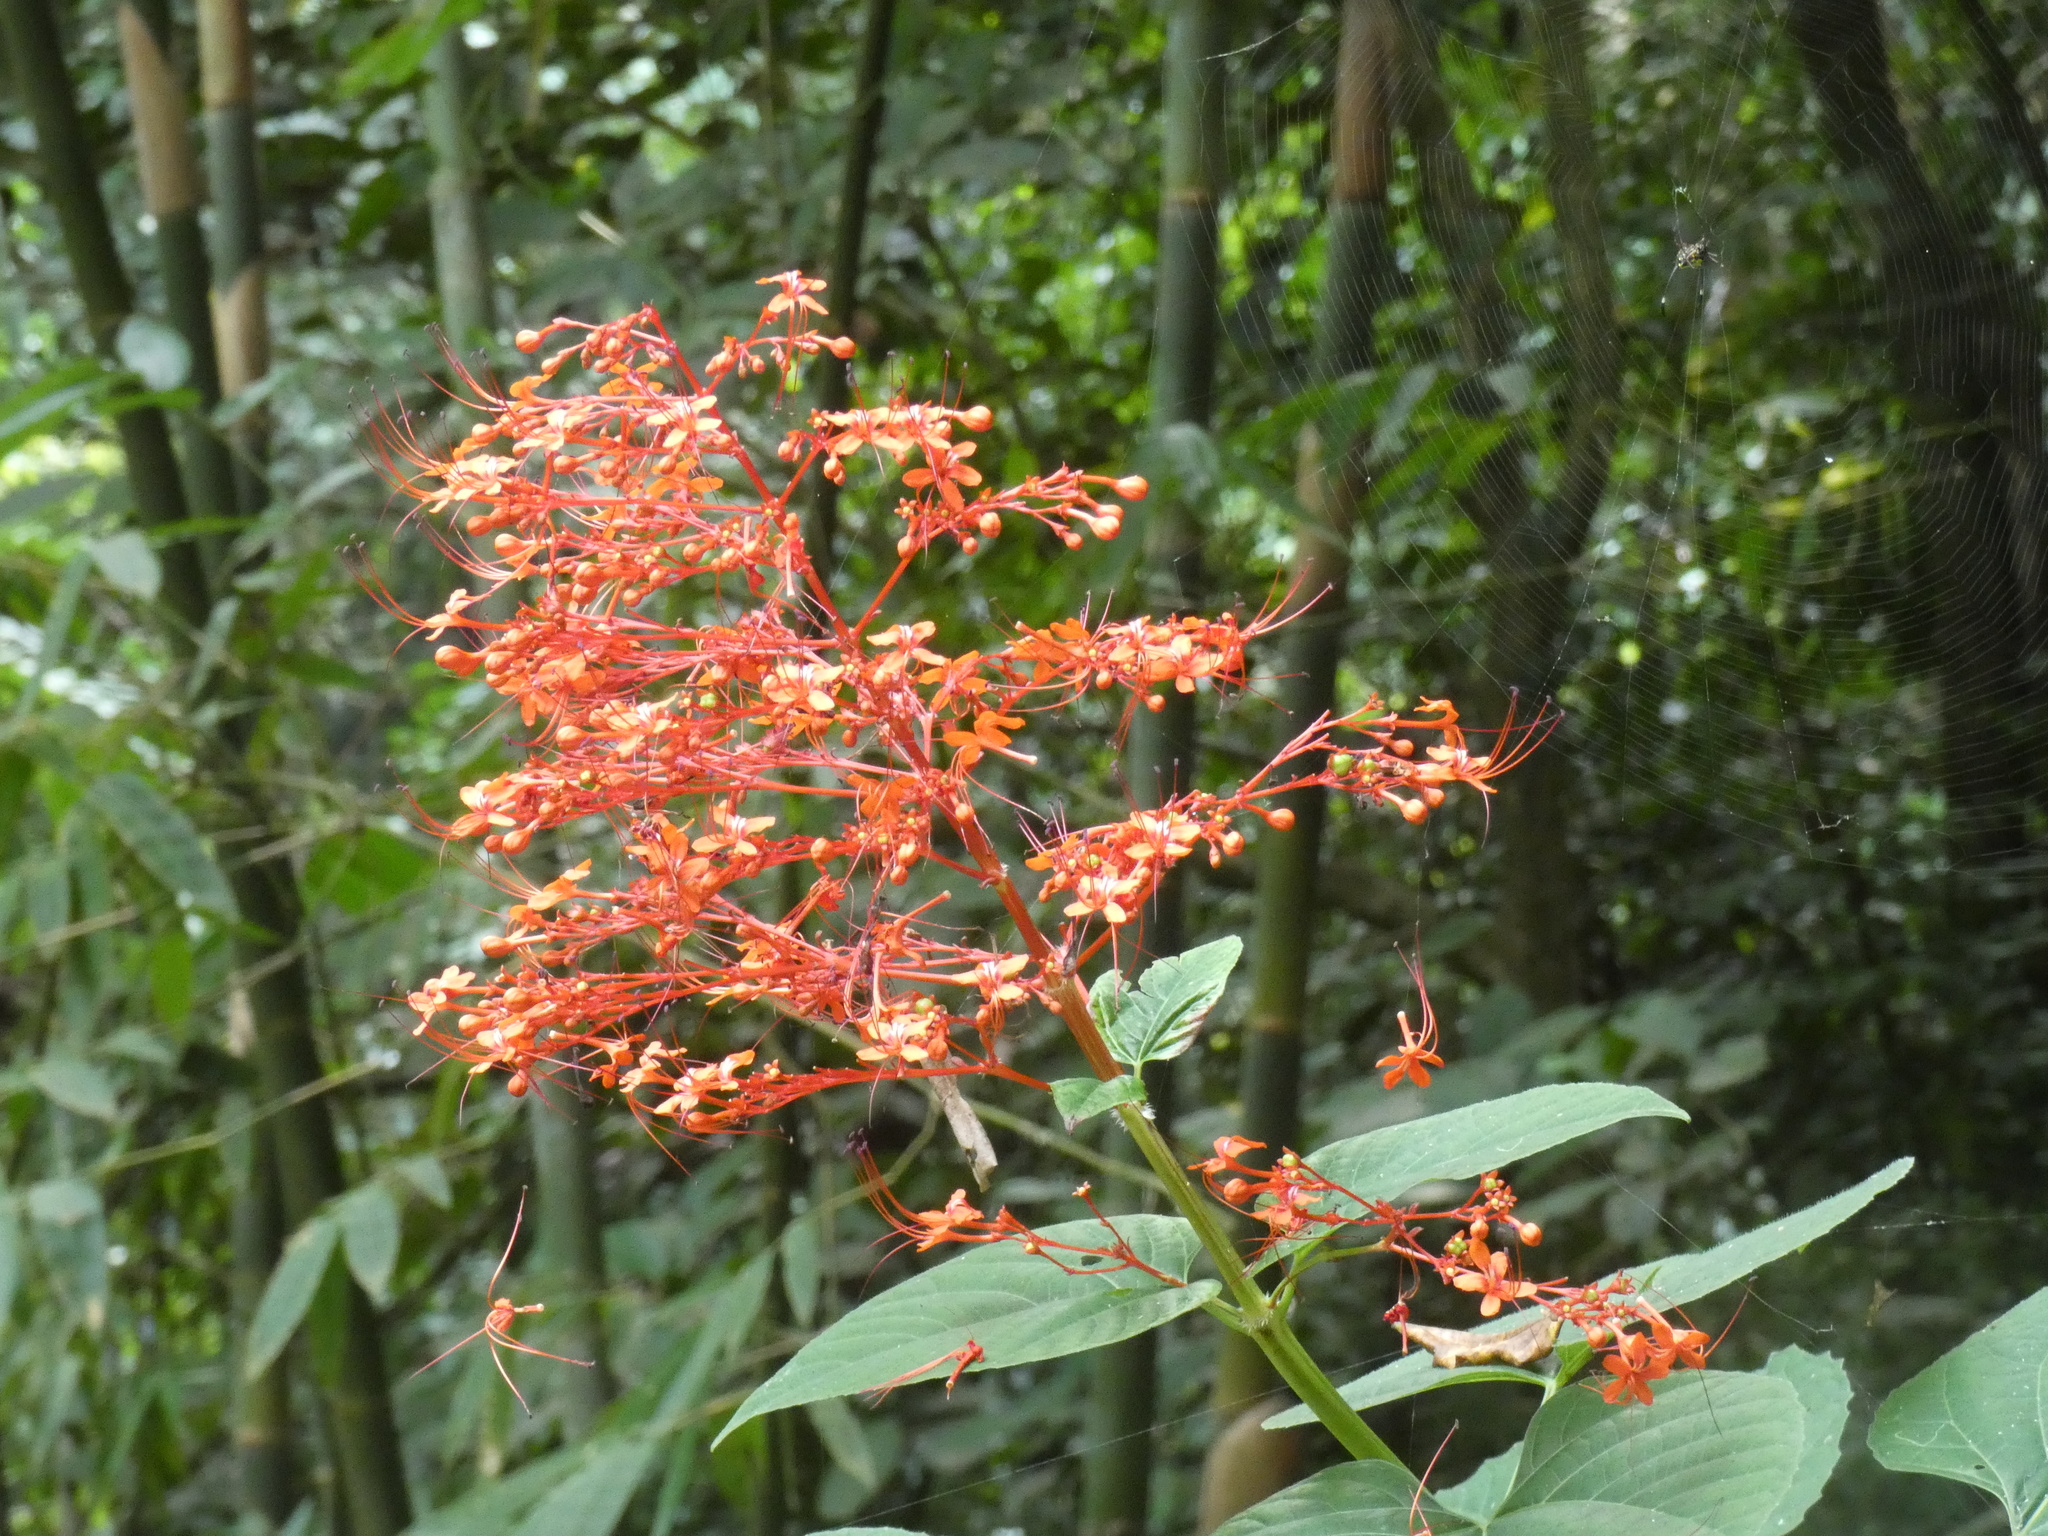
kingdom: Plantae
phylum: Tracheophyta
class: Magnoliopsida
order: Lamiales
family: Lamiaceae
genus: Clerodendrum
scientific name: Clerodendrum paniculatum
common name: Pagoda-flower
